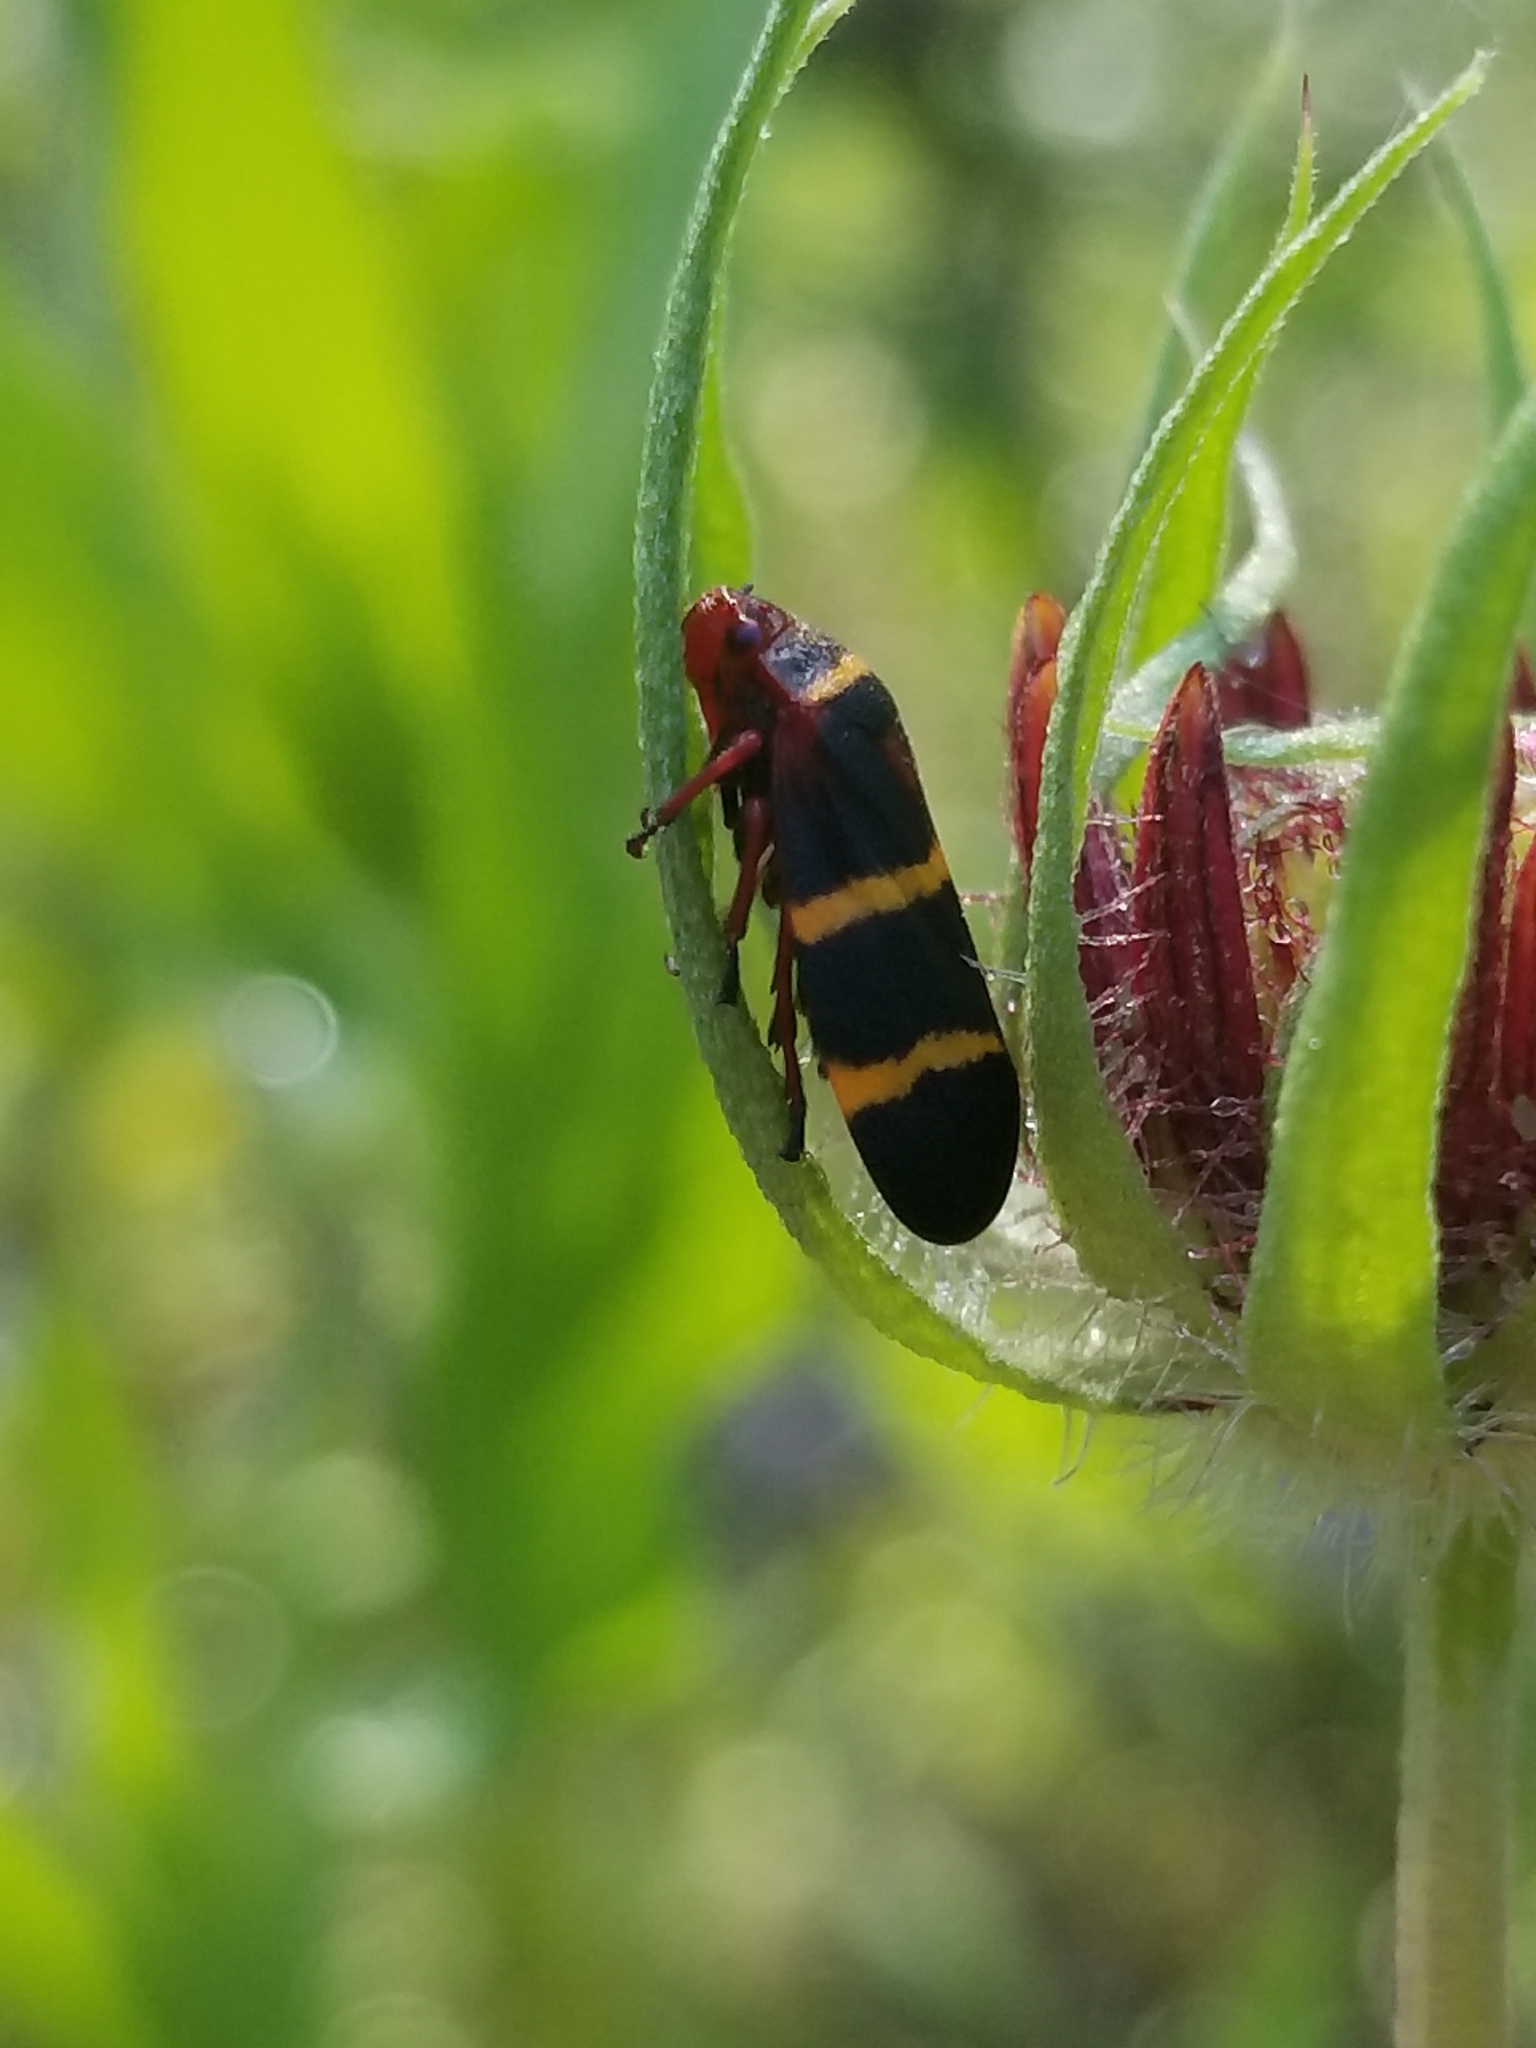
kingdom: Animalia
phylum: Arthropoda
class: Insecta
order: Hemiptera
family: Cercopidae
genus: Prosapia
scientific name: Prosapia bicincta
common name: Twolined spittlebug
